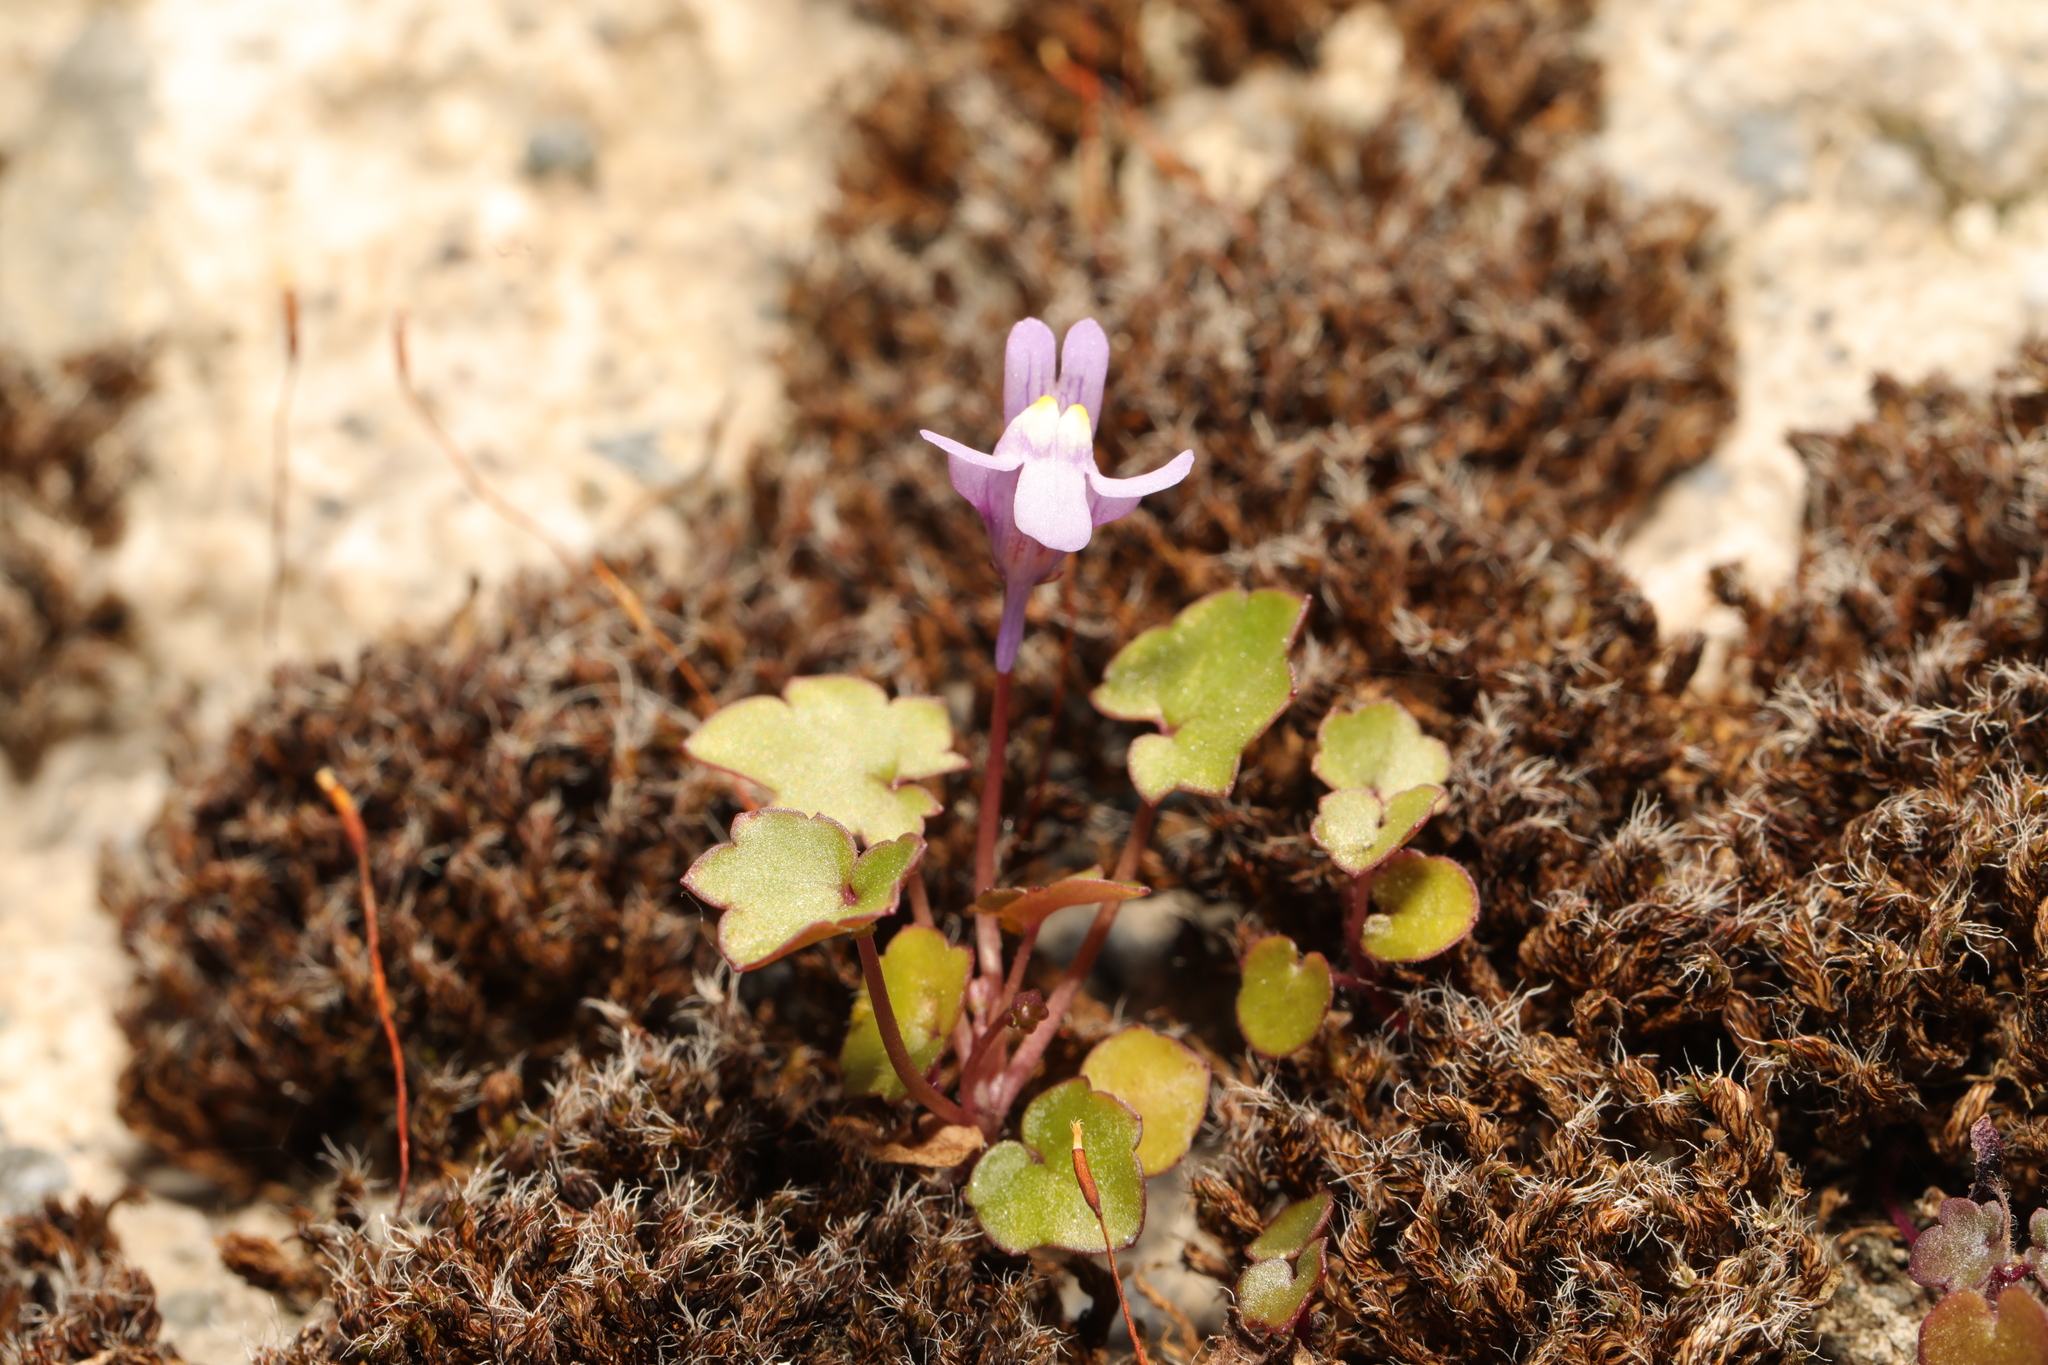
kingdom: Plantae
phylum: Tracheophyta
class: Magnoliopsida
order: Lamiales
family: Plantaginaceae
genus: Cymbalaria
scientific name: Cymbalaria muralis
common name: Ivy-leaved toadflax
